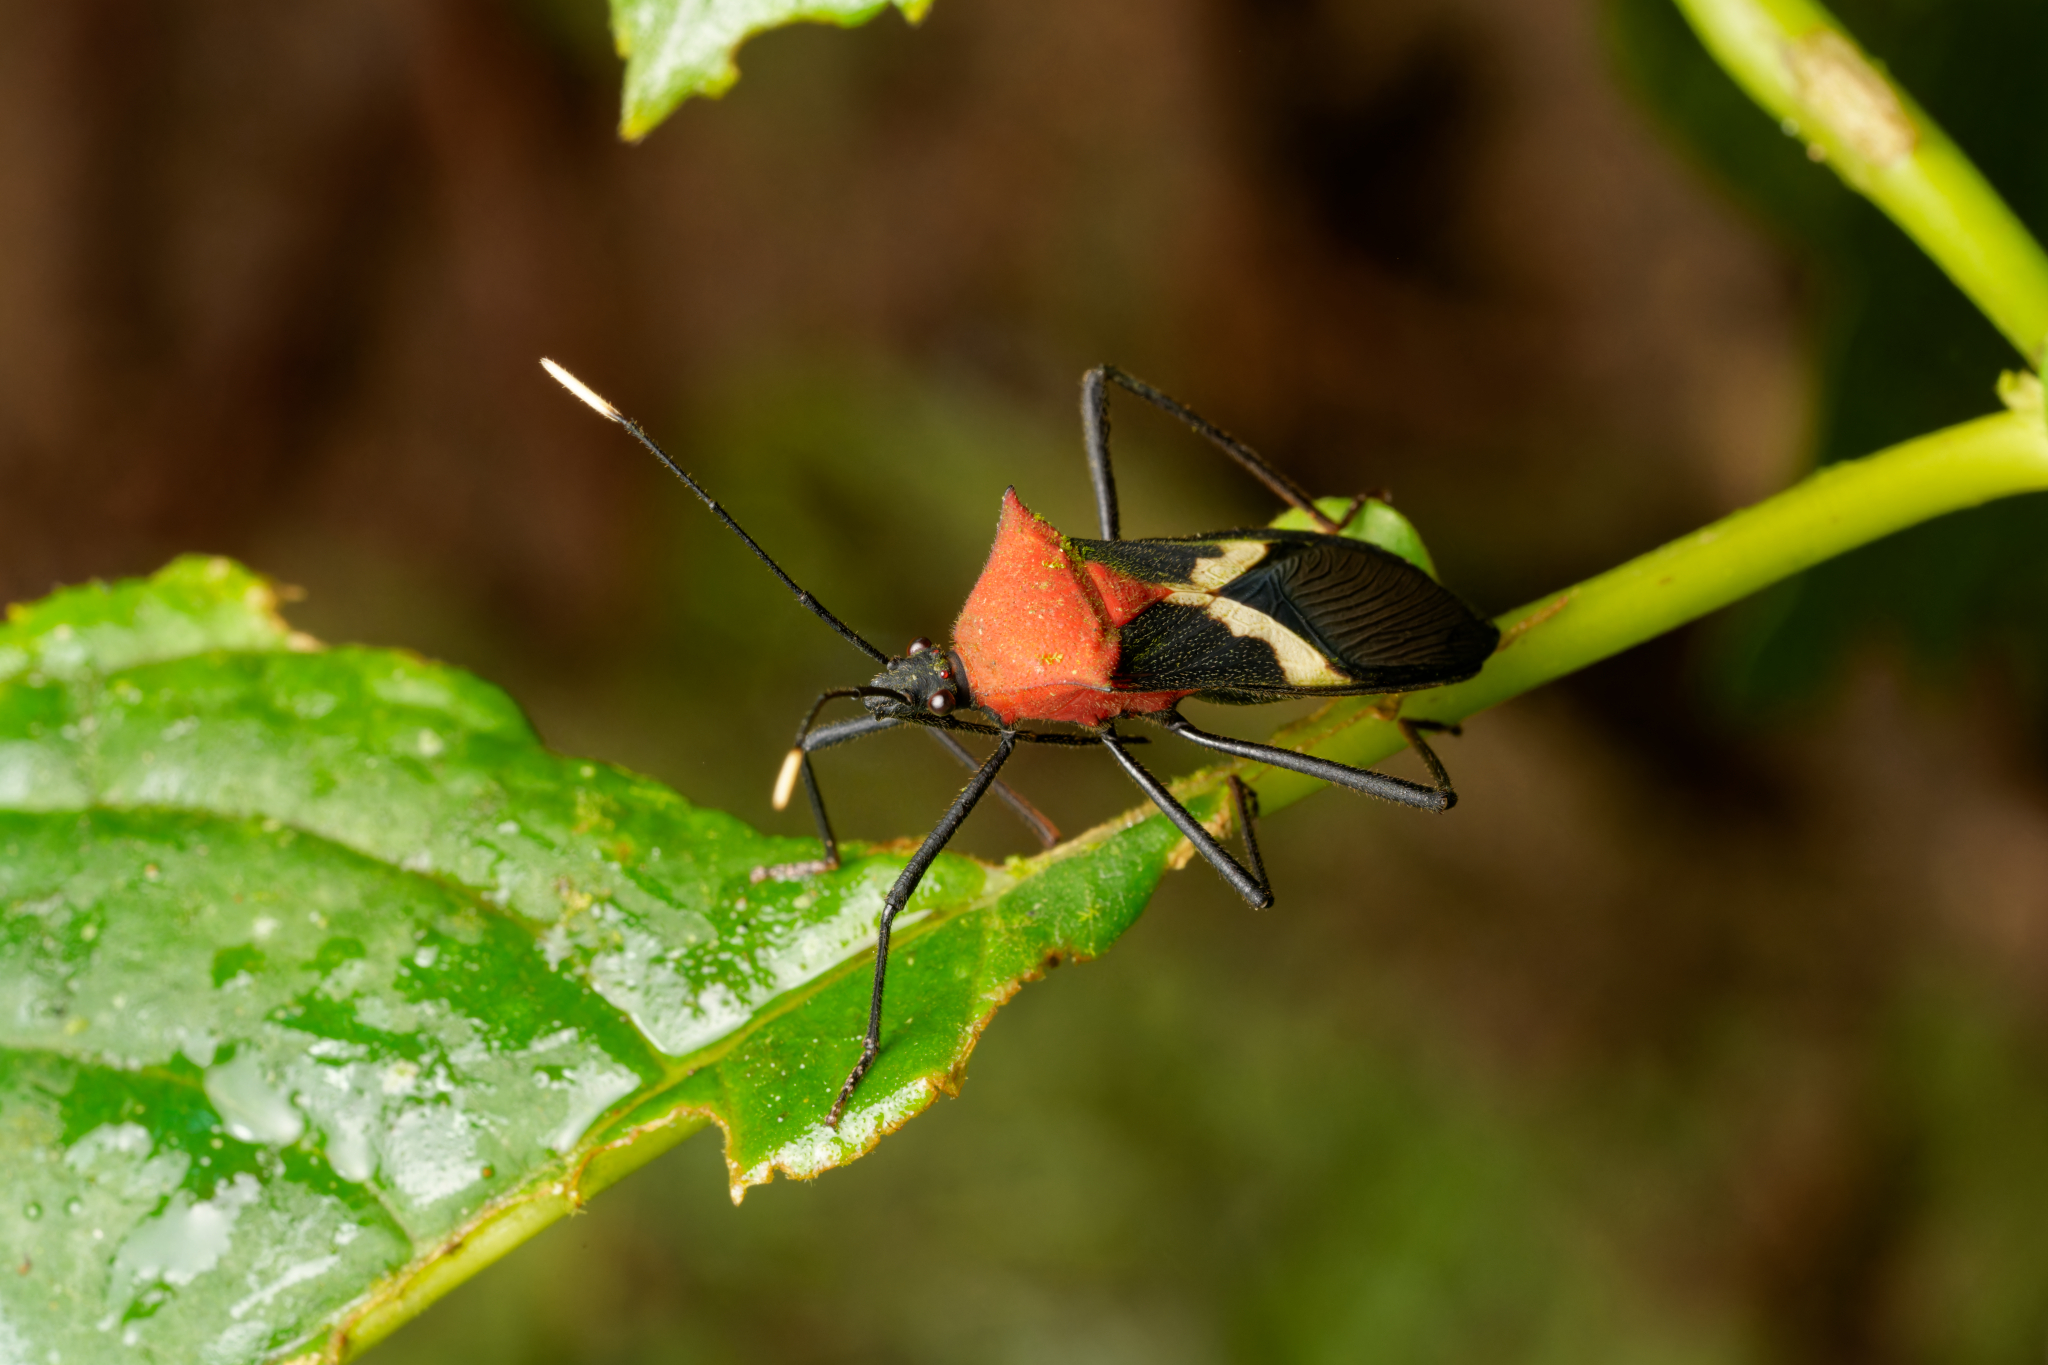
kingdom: Animalia
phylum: Arthropoda
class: Insecta
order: Hemiptera
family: Coreidae
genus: Leptoscelis
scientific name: Leptoscelis militaris
